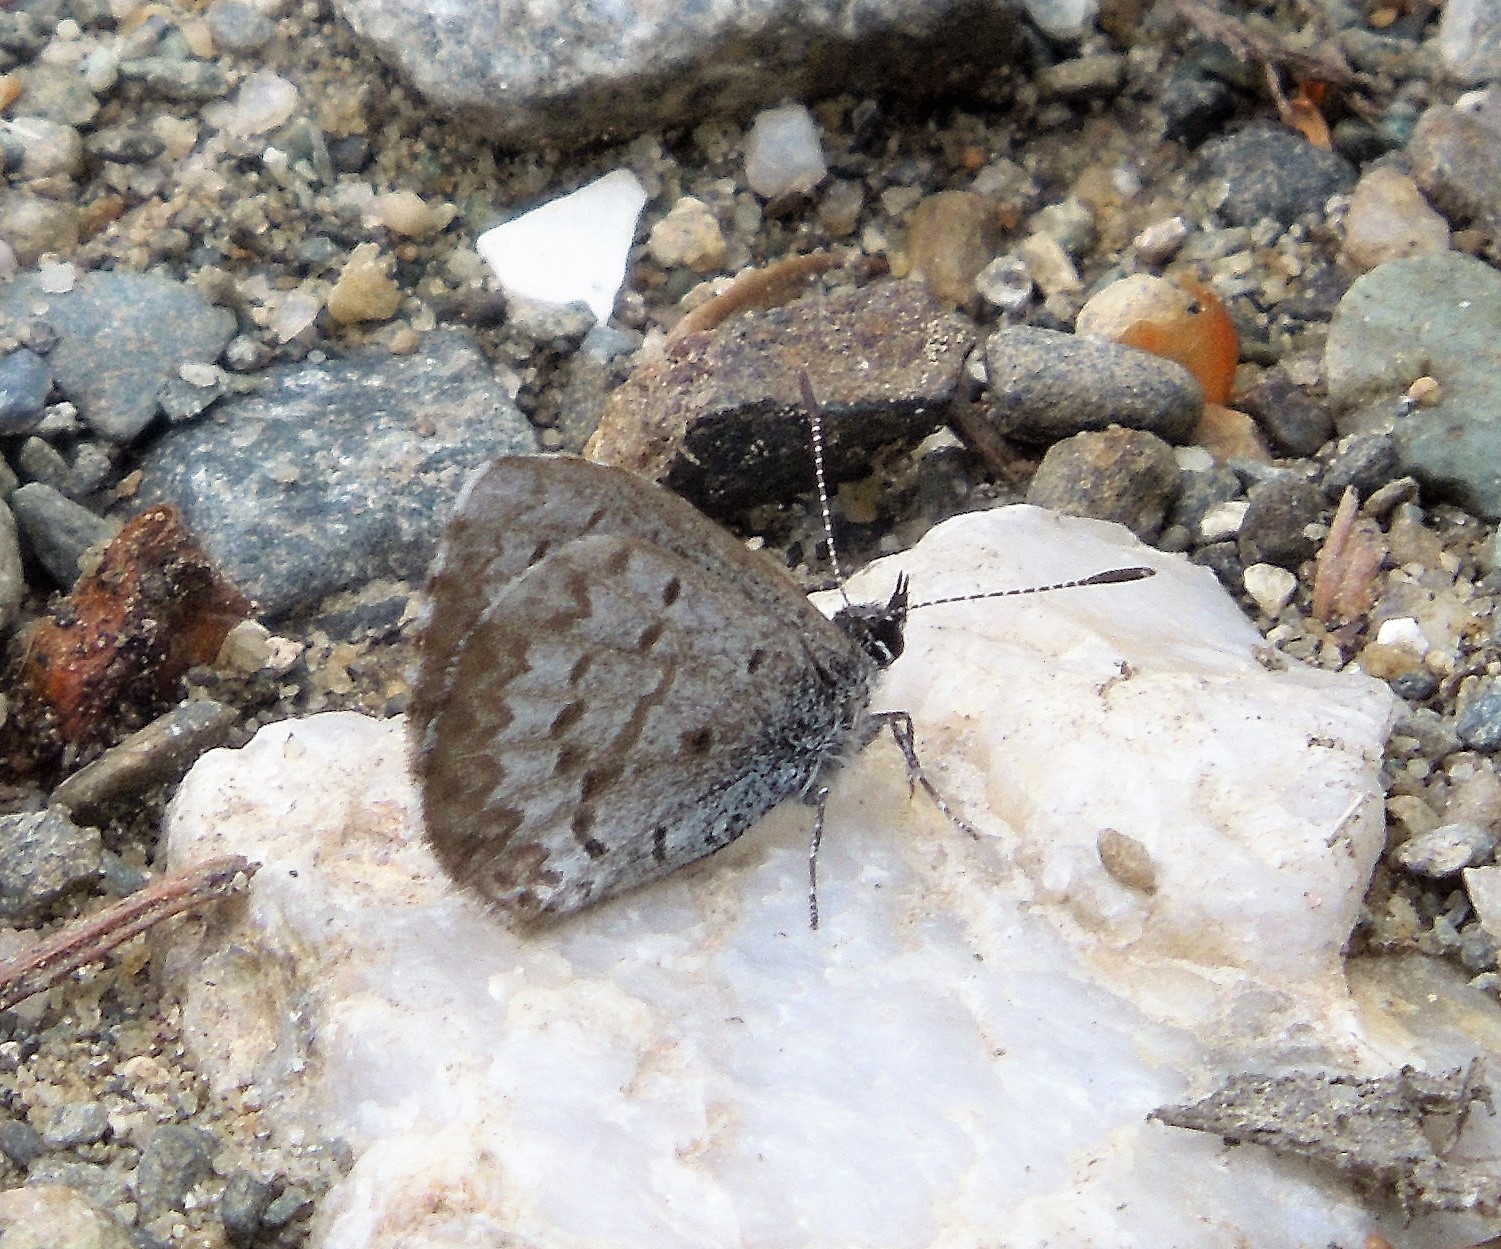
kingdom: Animalia
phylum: Arthropoda
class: Insecta
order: Lepidoptera
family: Lycaenidae
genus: Celastrina
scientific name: Celastrina lucia
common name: Lucia azure
